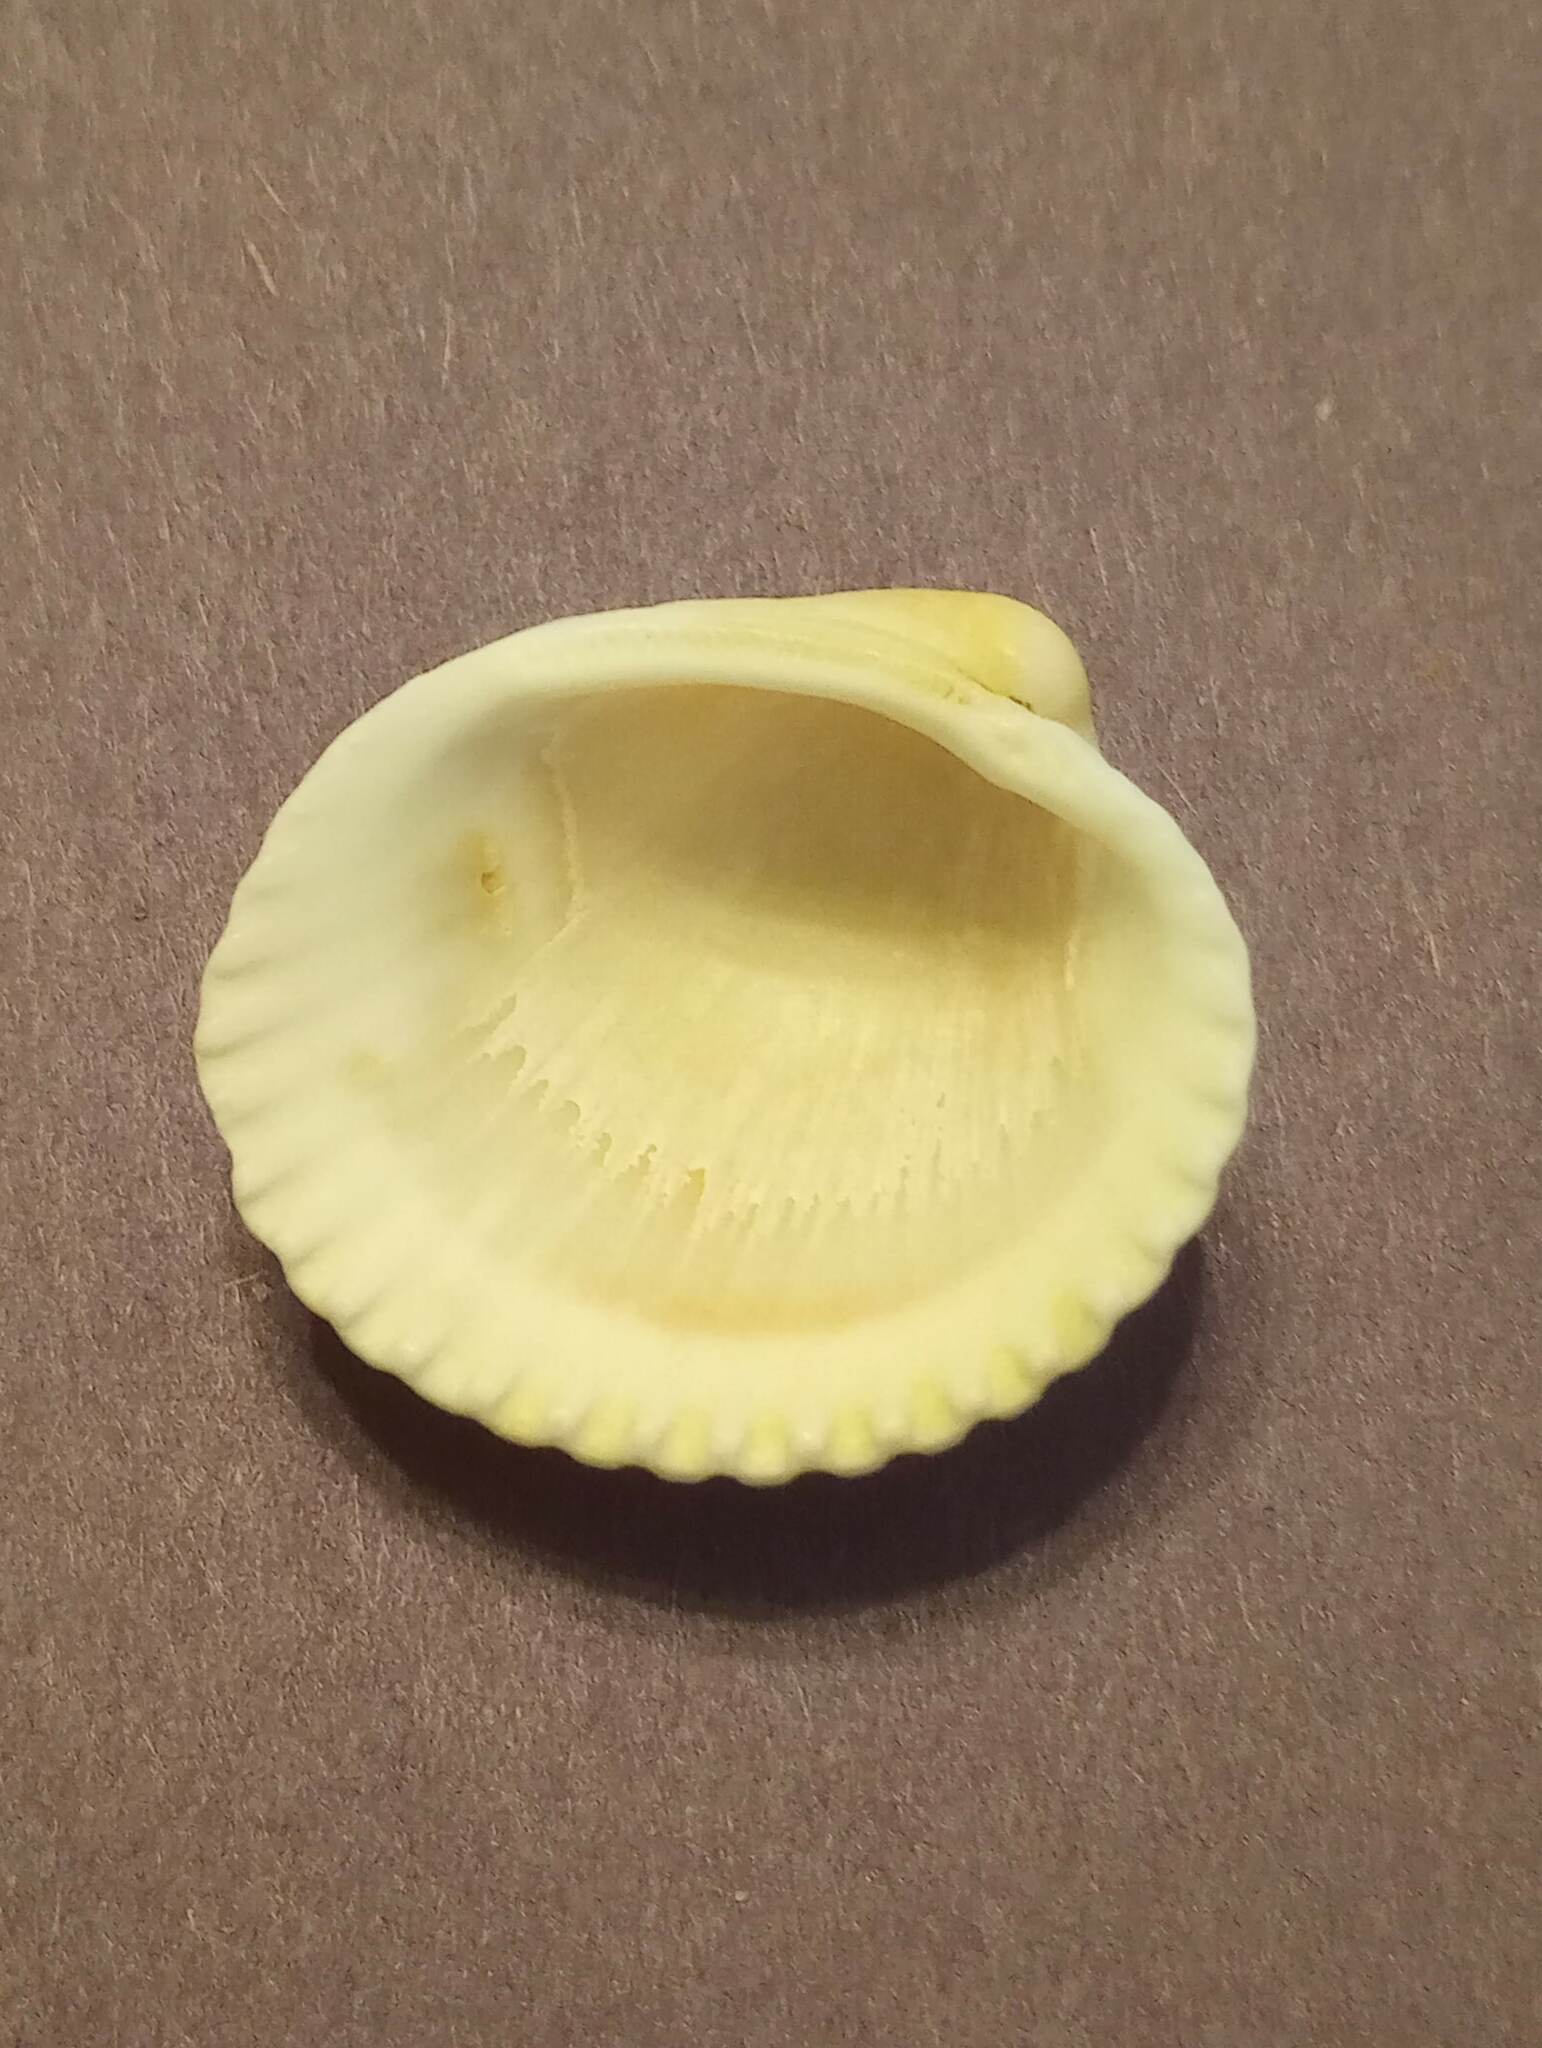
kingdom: Animalia
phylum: Mollusca
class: Bivalvia
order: Arcida
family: Arcidae
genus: Lunarca
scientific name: Lunarca ovalis
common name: Blood ark
